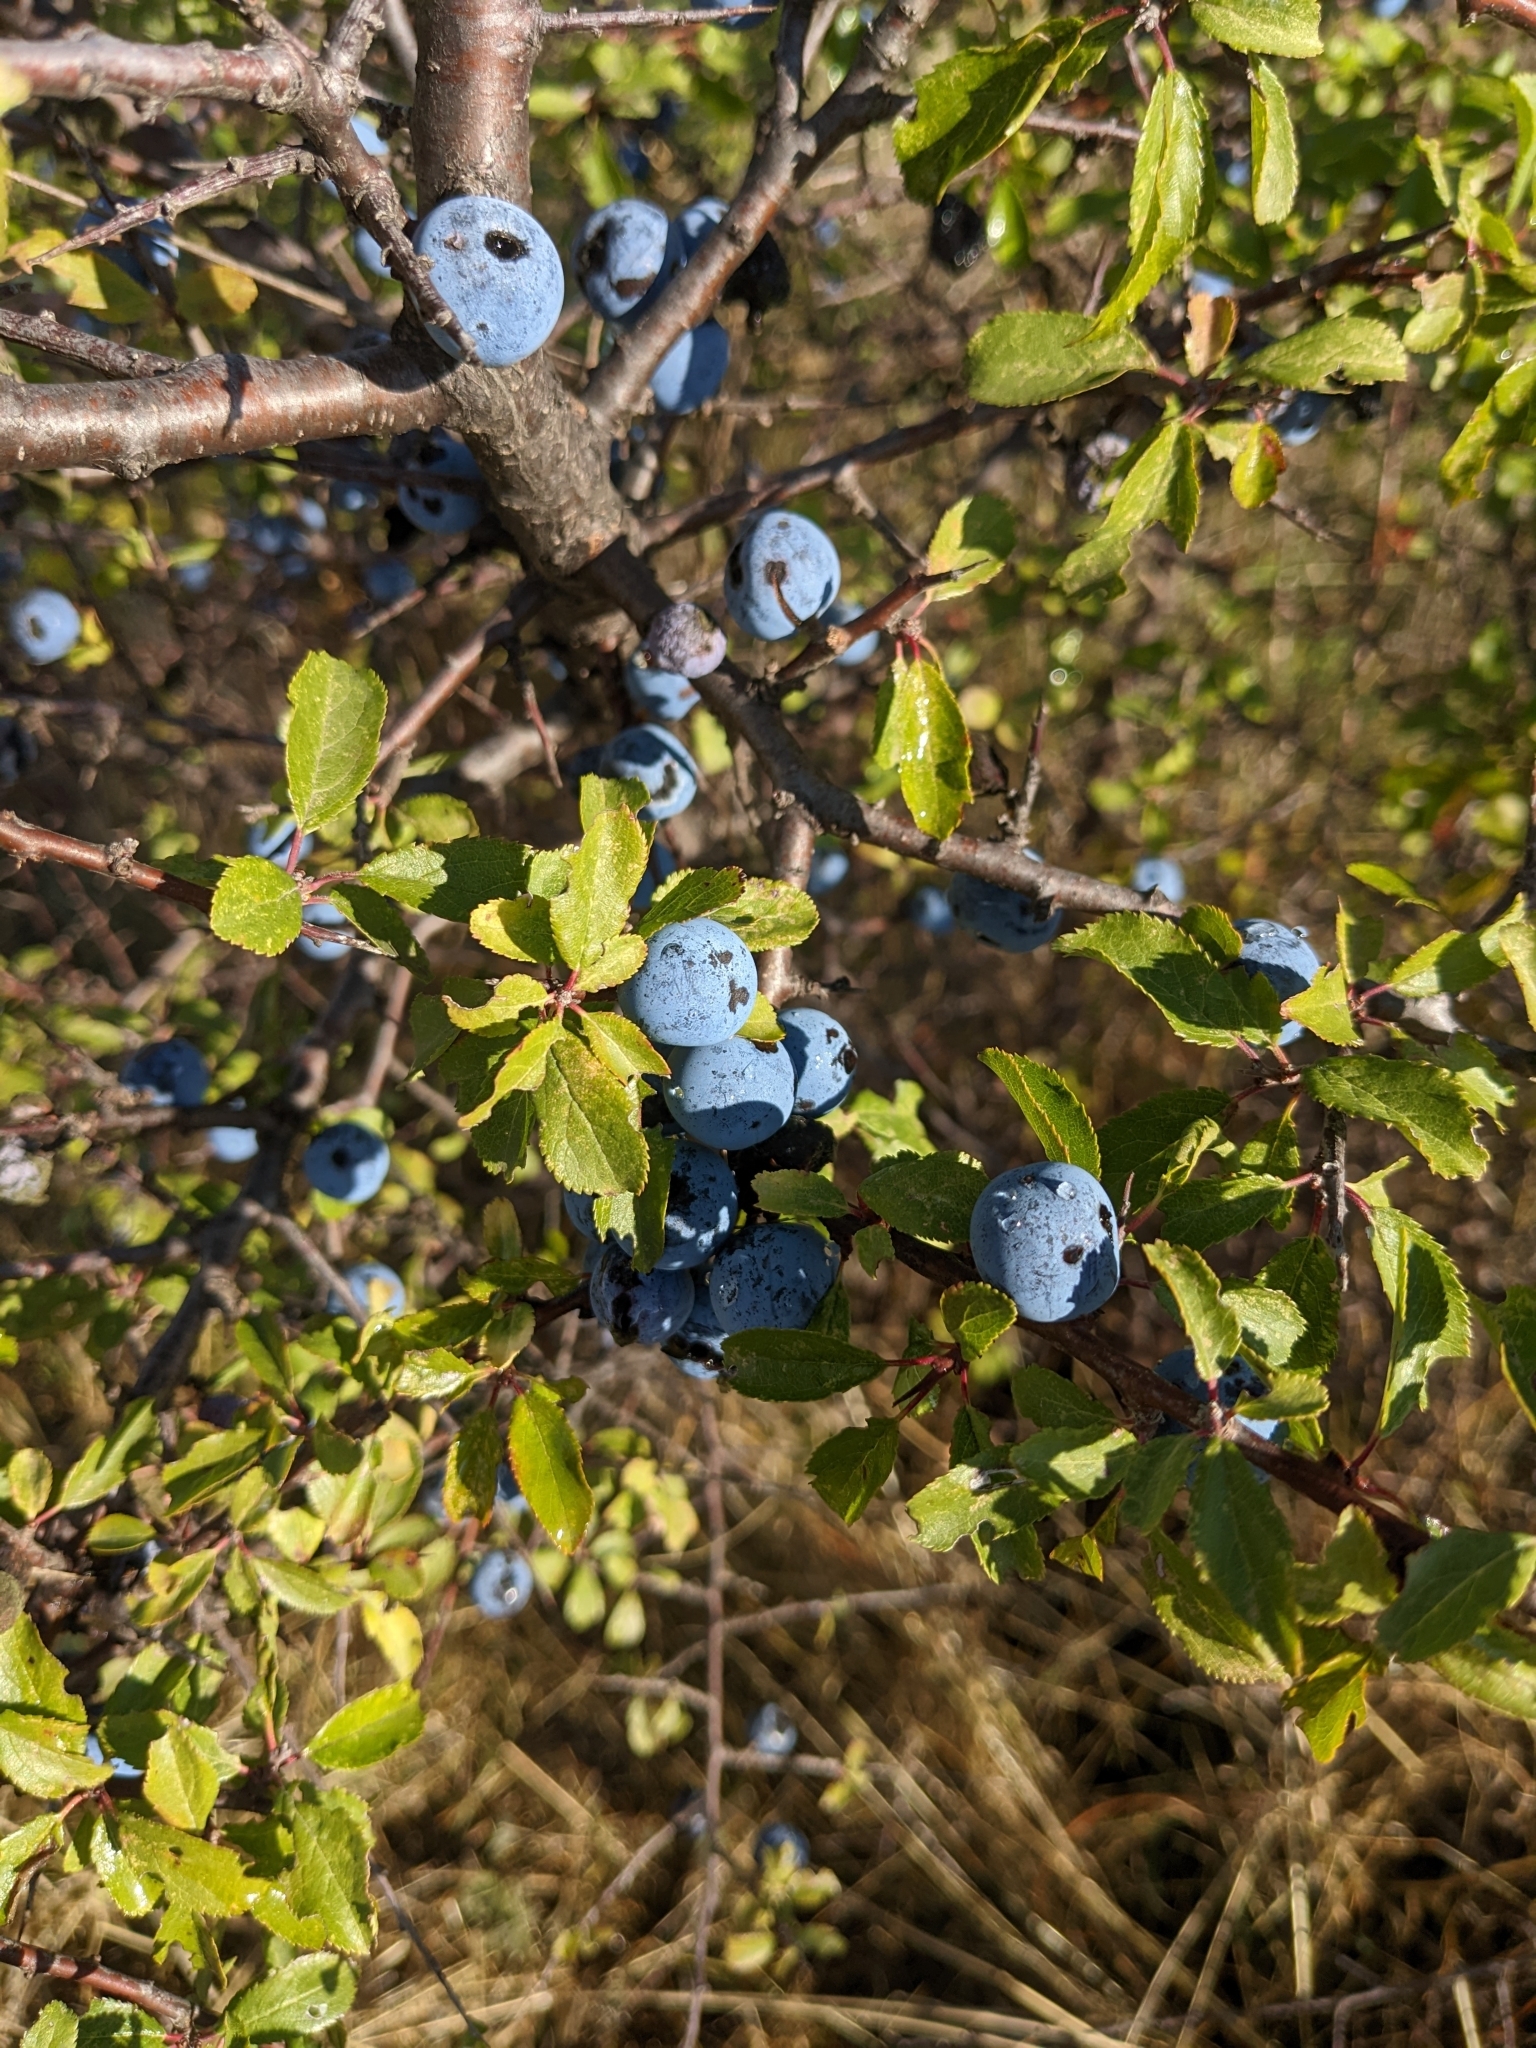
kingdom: Plantae
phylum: Tracheophyta
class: Magnoliopsida
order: Rosales
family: Rosaceae
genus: Prunus
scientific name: Prunus spinosa
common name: Blackthorn
